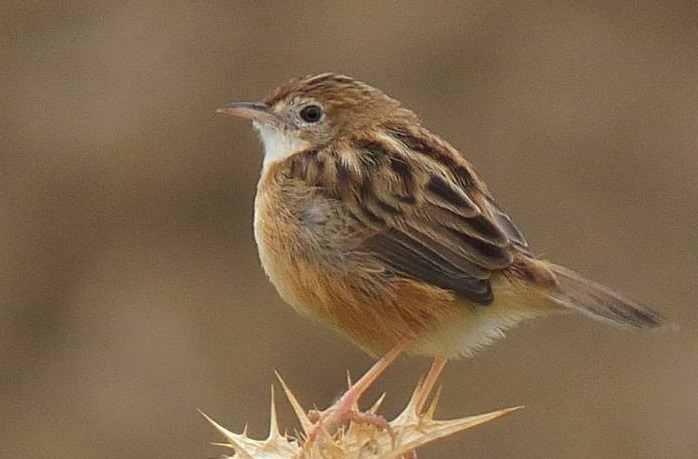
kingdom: Animalia
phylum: Chordata
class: Aves
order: Passeriformes
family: Cisticolidae
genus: Cisticola
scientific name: Cisticola juncidis
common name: Zitting cisticola
